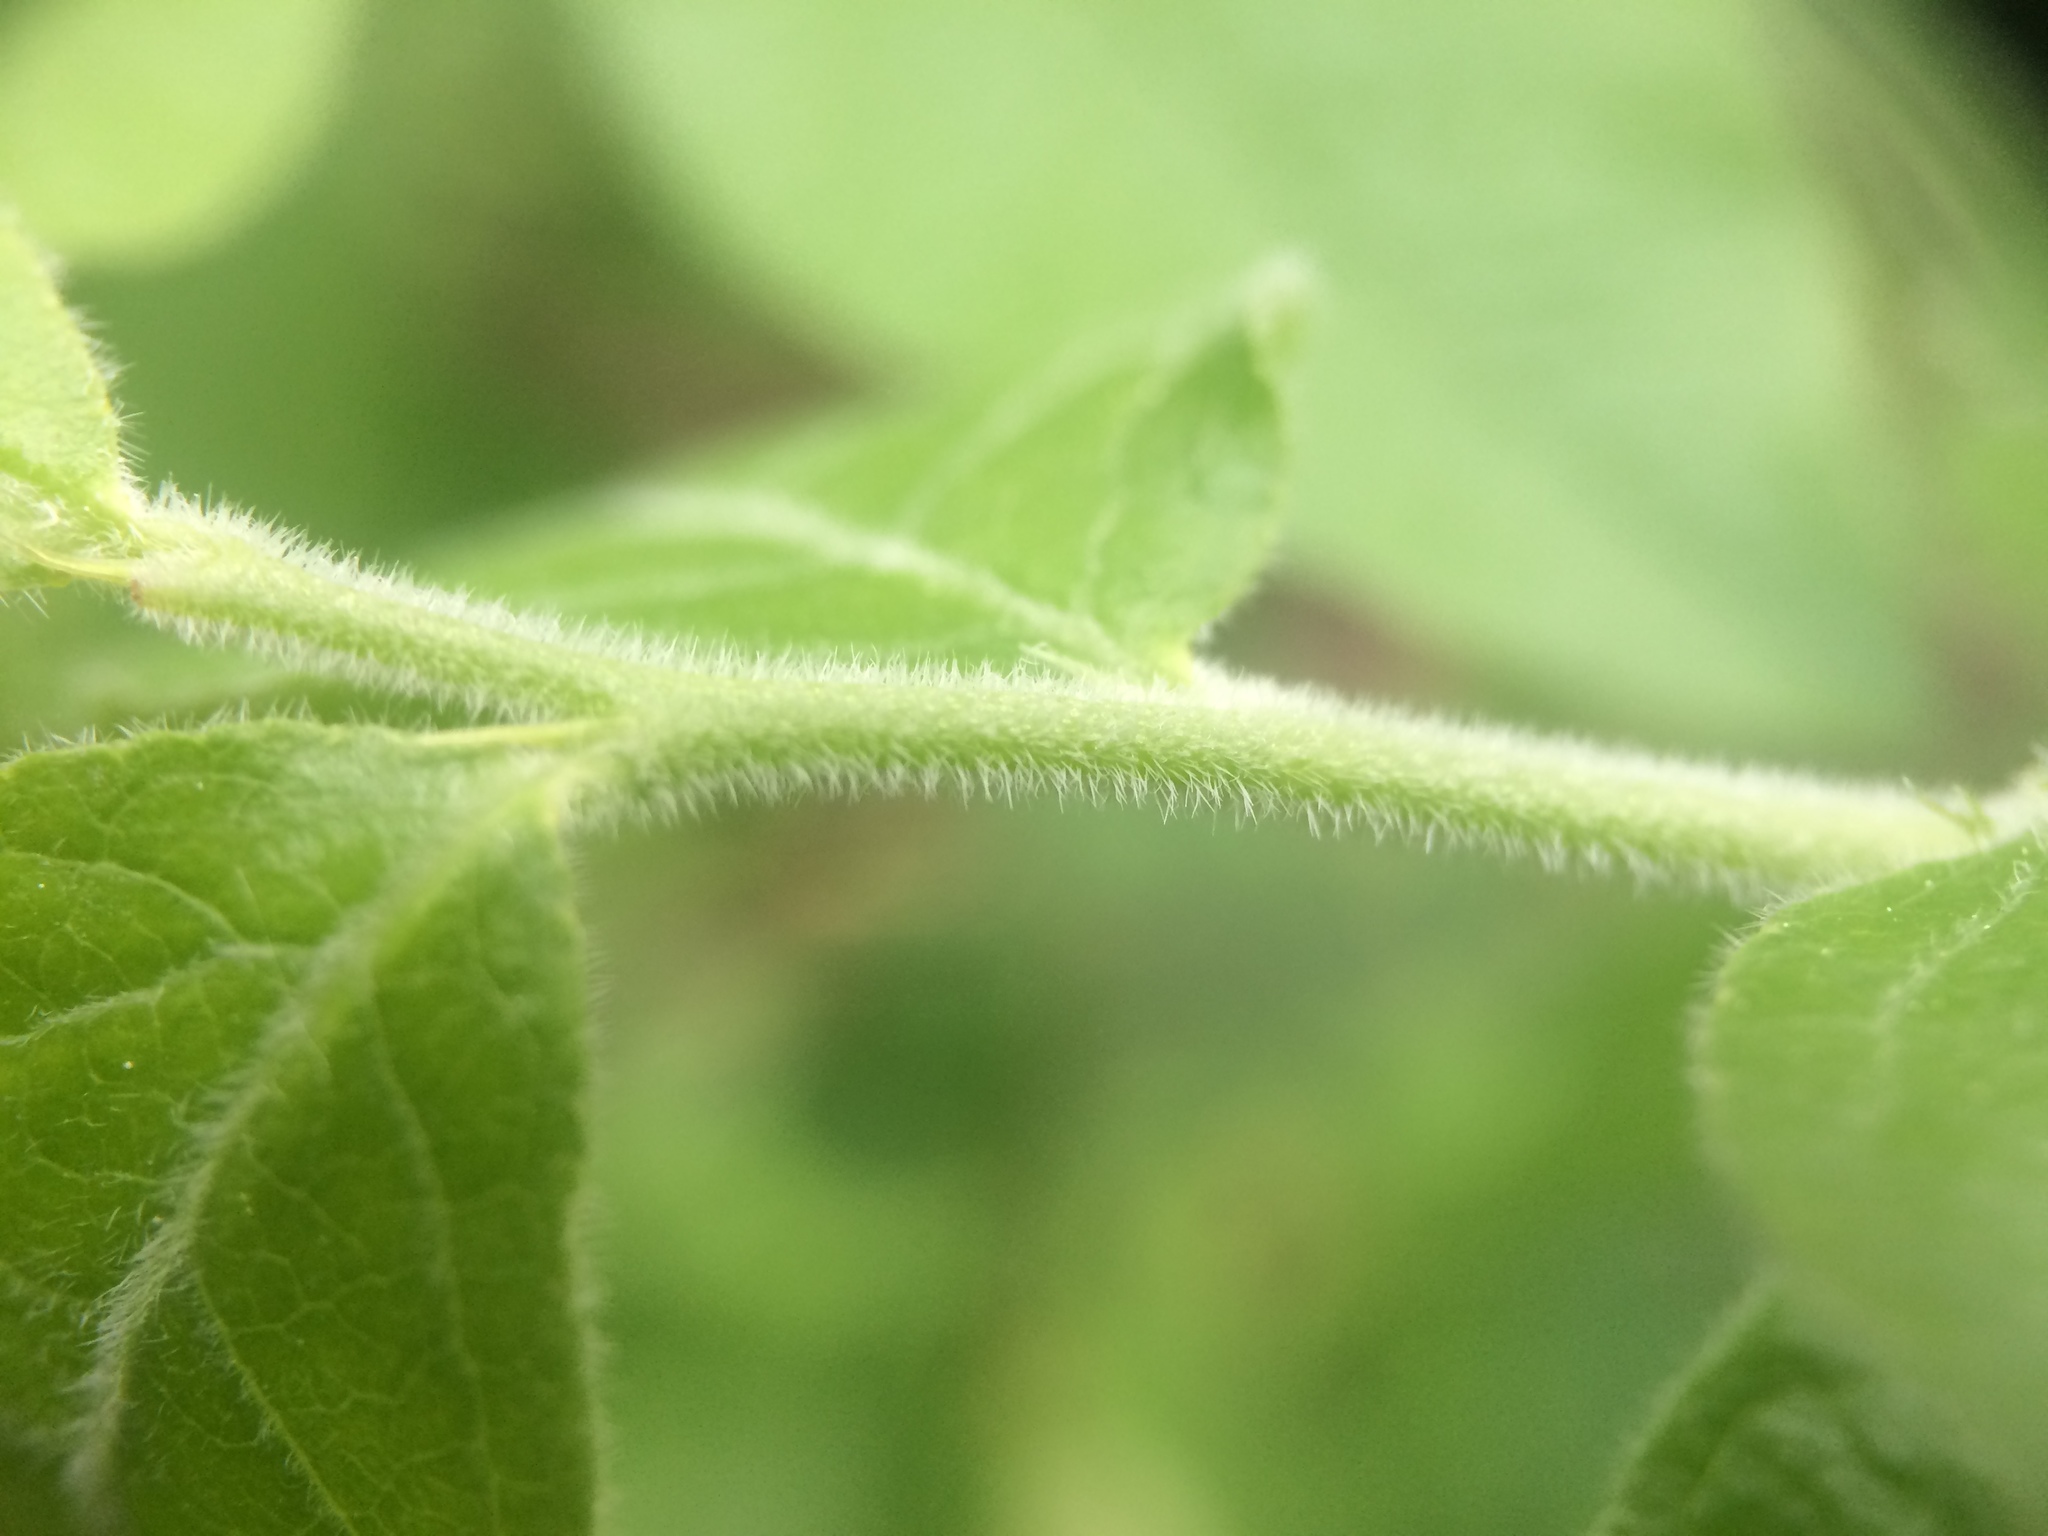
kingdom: Plantae
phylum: Tracheophyta
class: Magnoliopsida
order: Ericales
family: Ericaceae
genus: Vaccinium
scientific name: Vaccinium myrtilloides
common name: Canada blueberry
